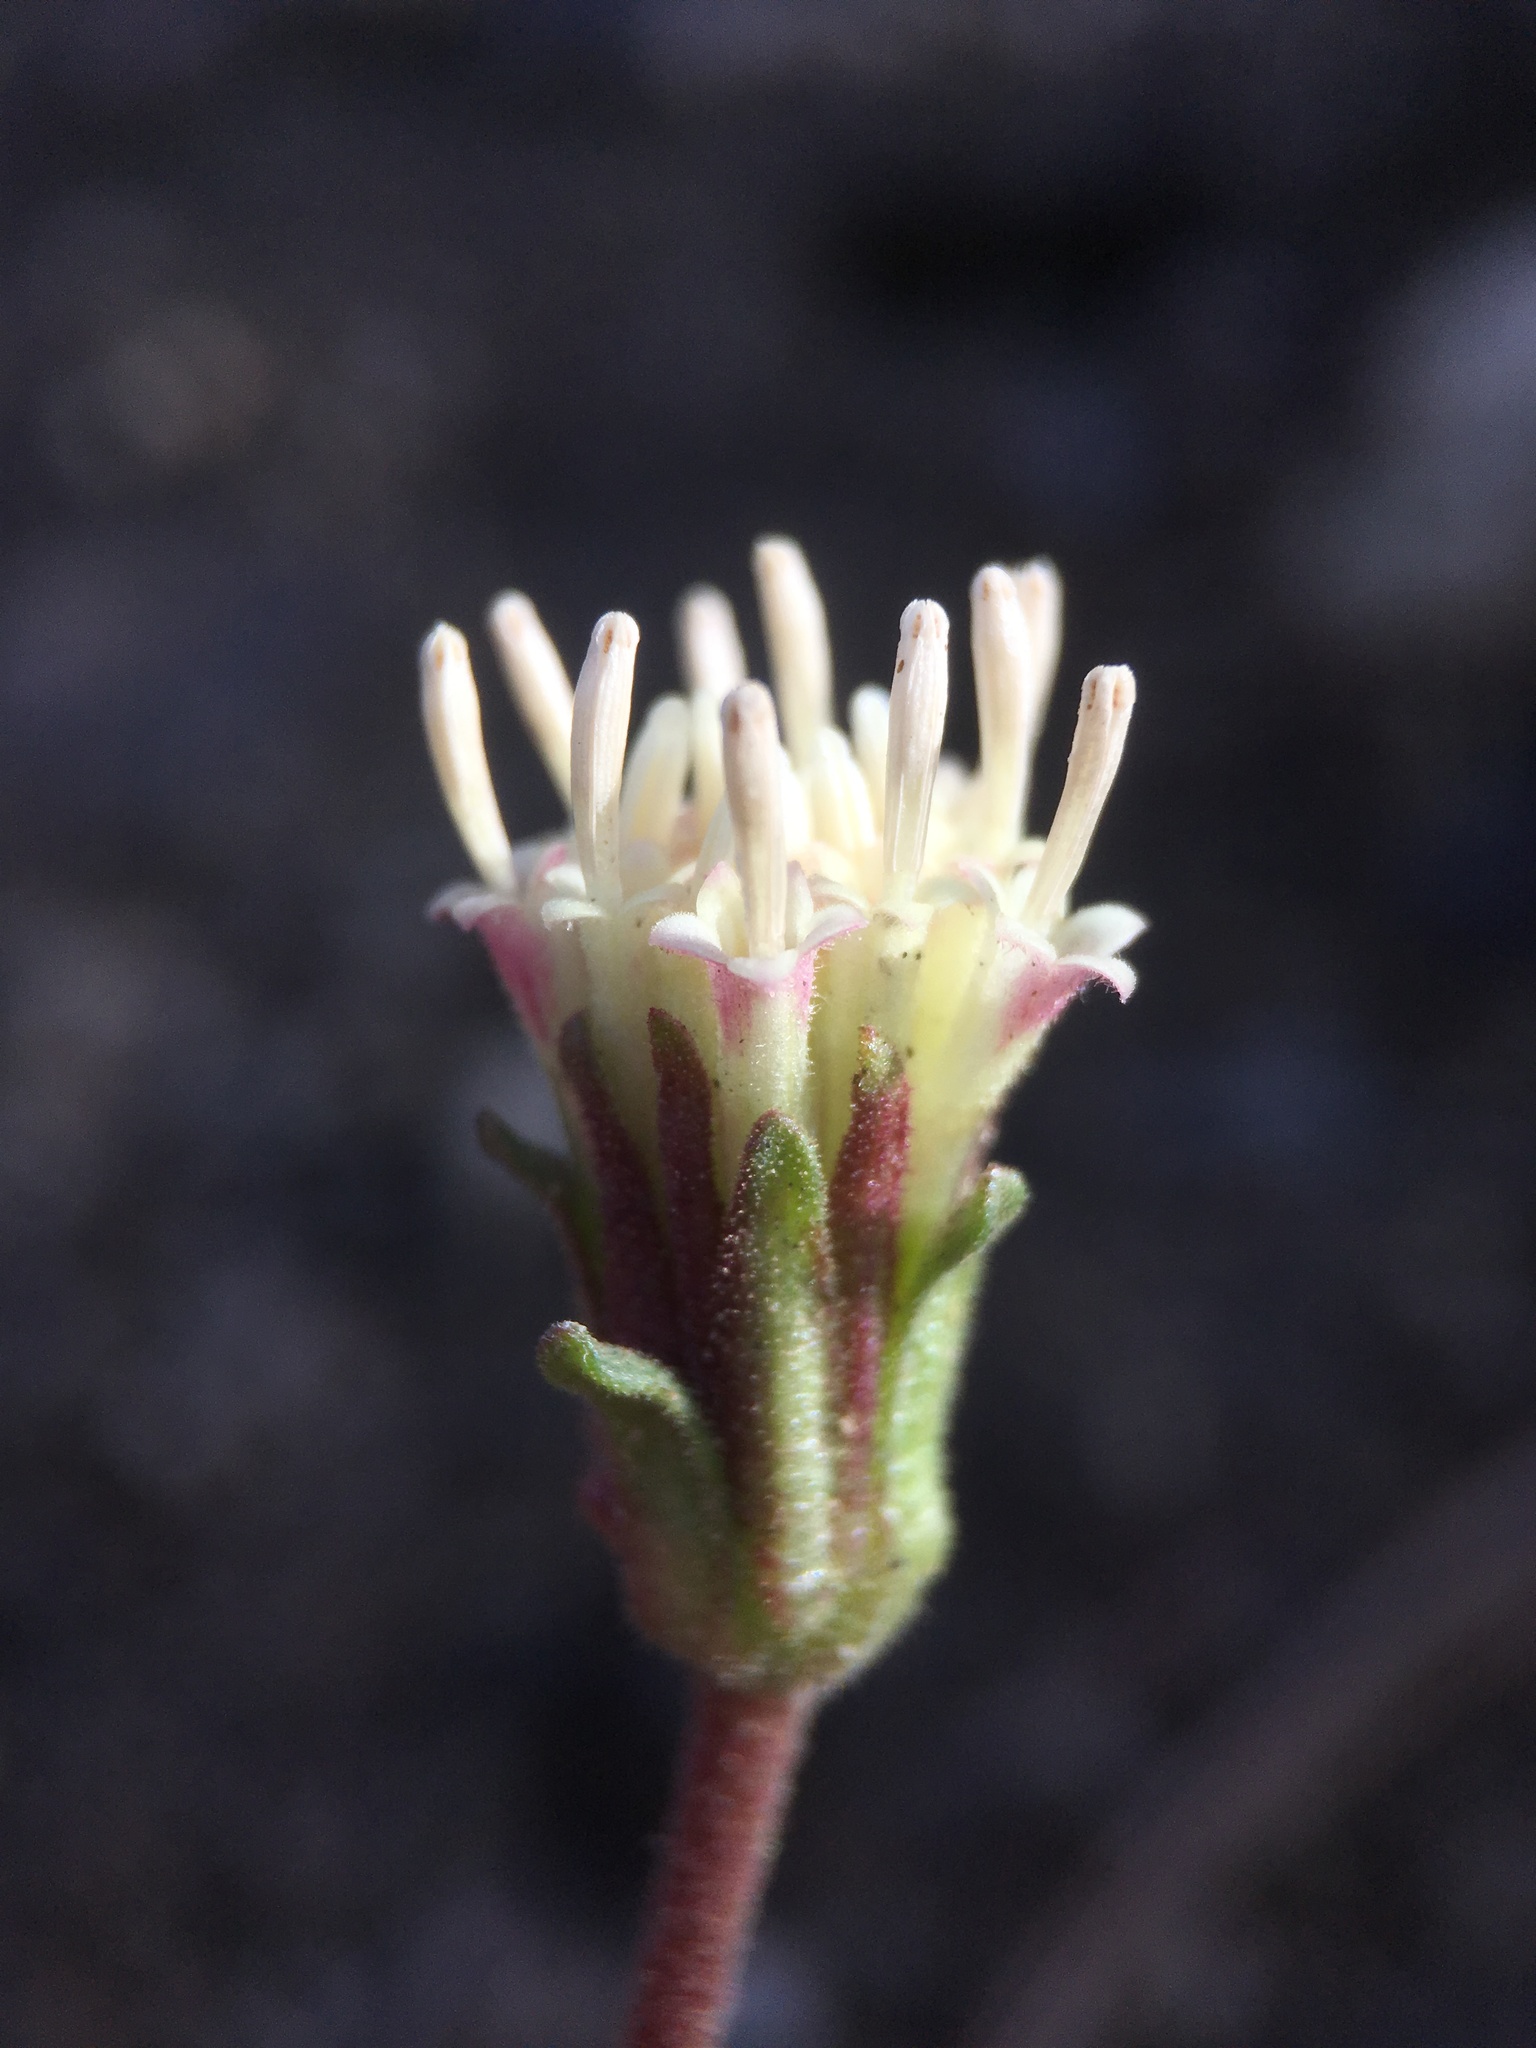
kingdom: Plantae
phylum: Tracheophyta
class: Magnoliopsida
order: Asterales
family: Asteraceae
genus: Chaenactis
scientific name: Chaenactis santolinoides
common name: Santolina pincushion
